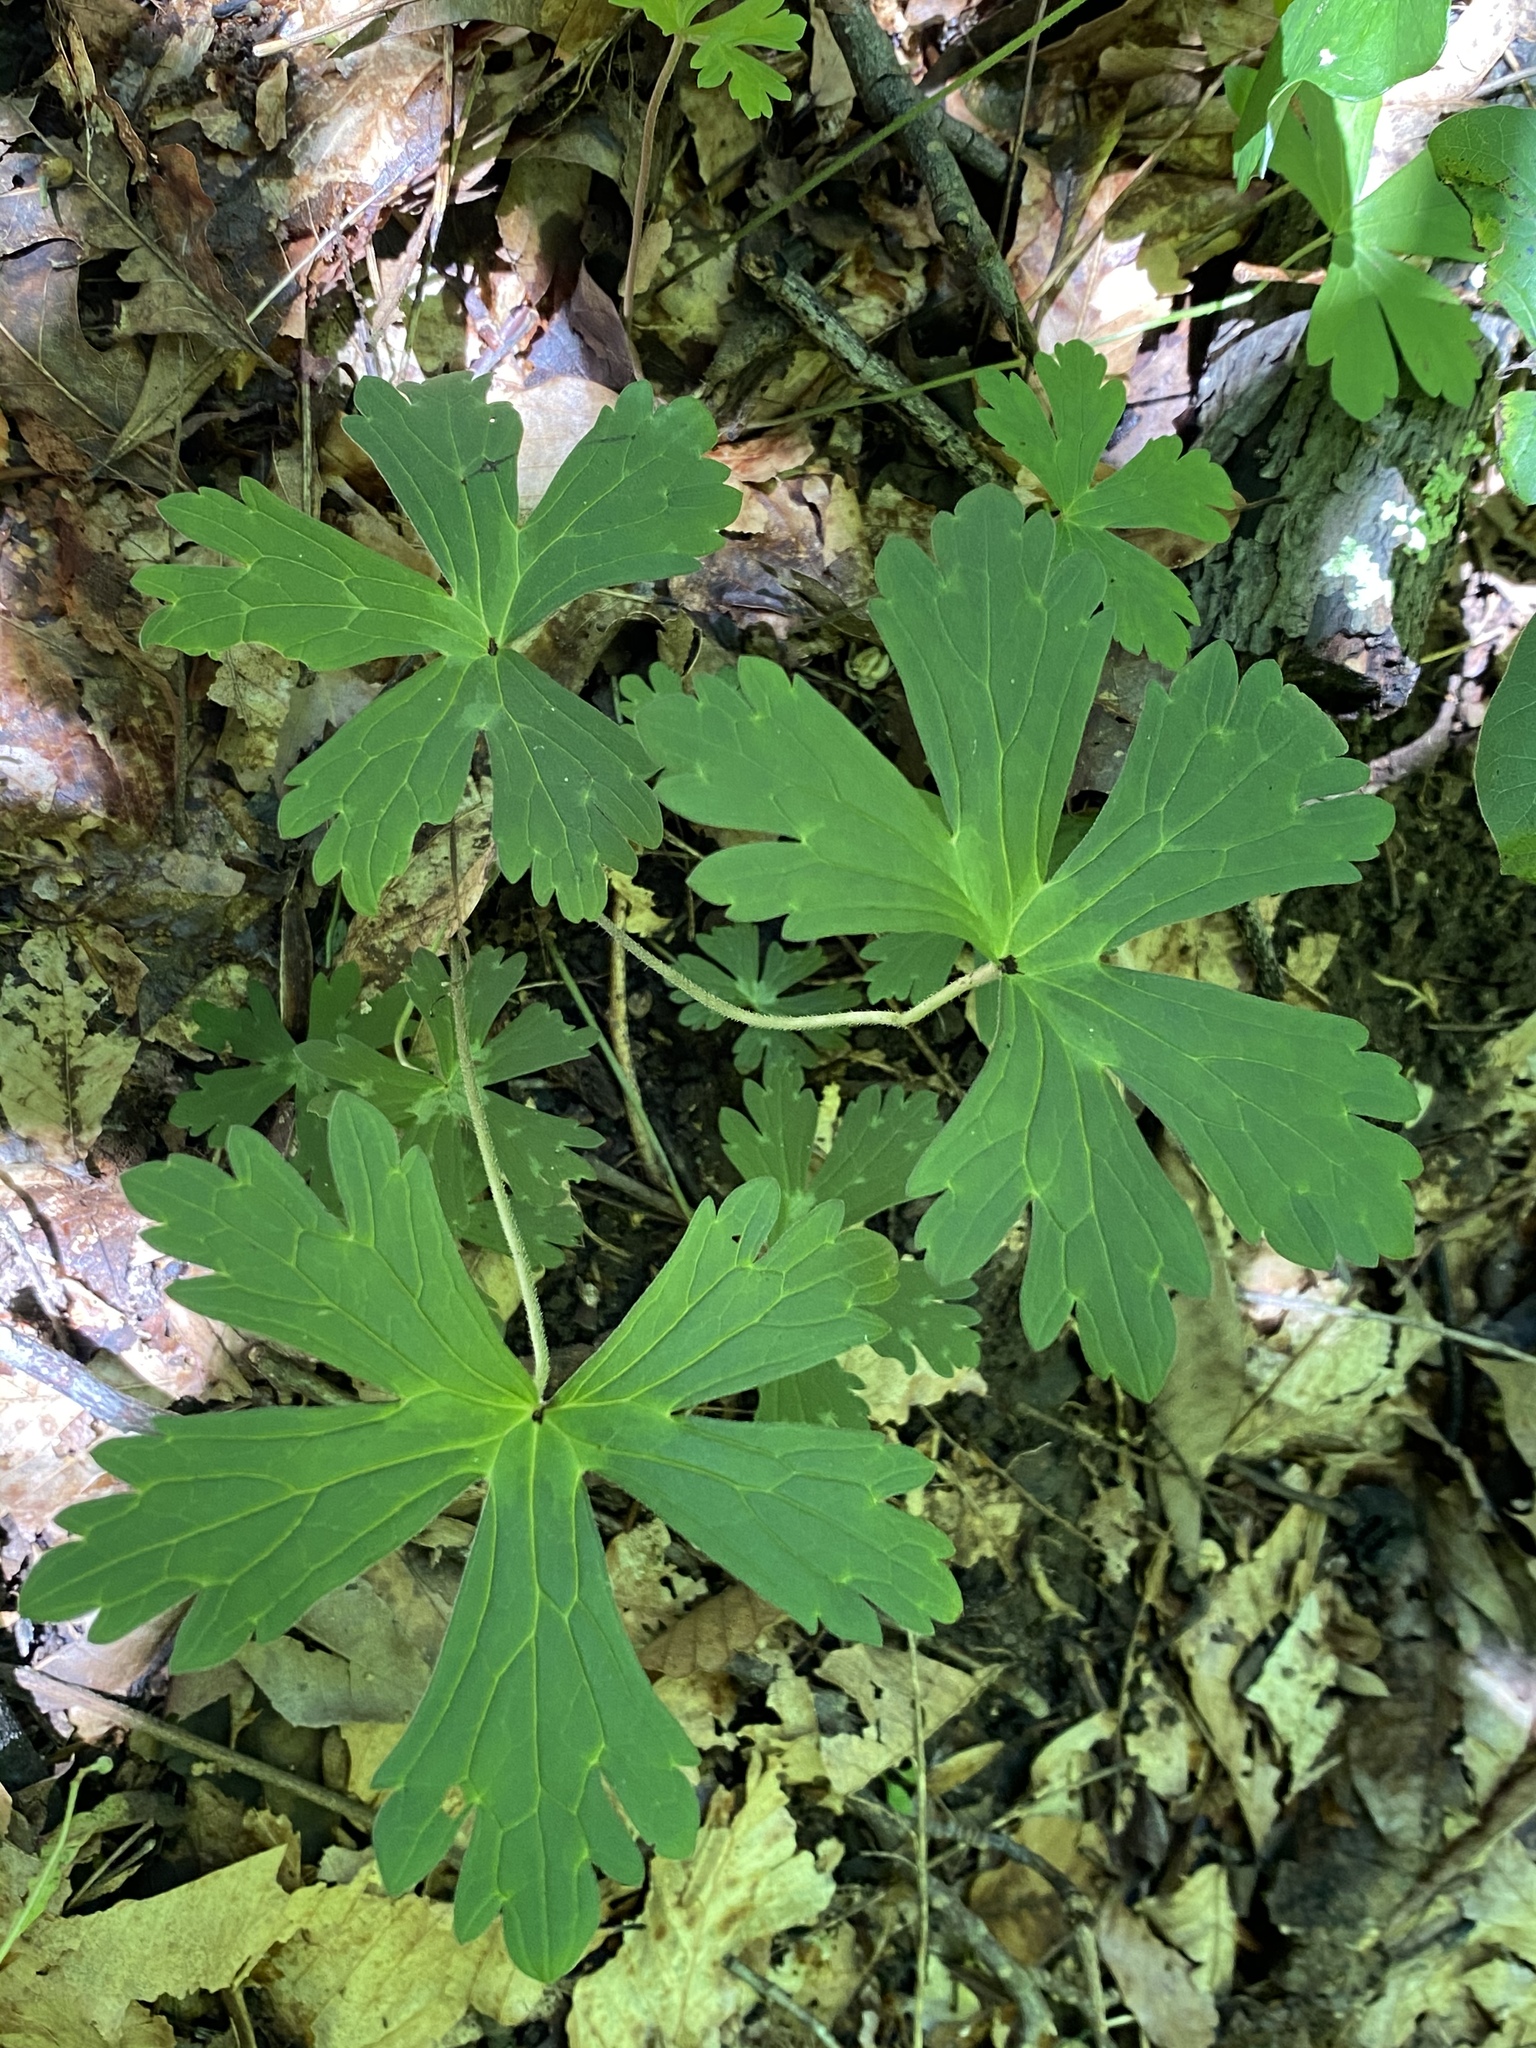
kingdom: Plantae
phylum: Tracheophyta
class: Magnoliopsida
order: Geraniales
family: Geraniaceae
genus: Geranium
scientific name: Geranium maculatum
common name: Spotted geranium
